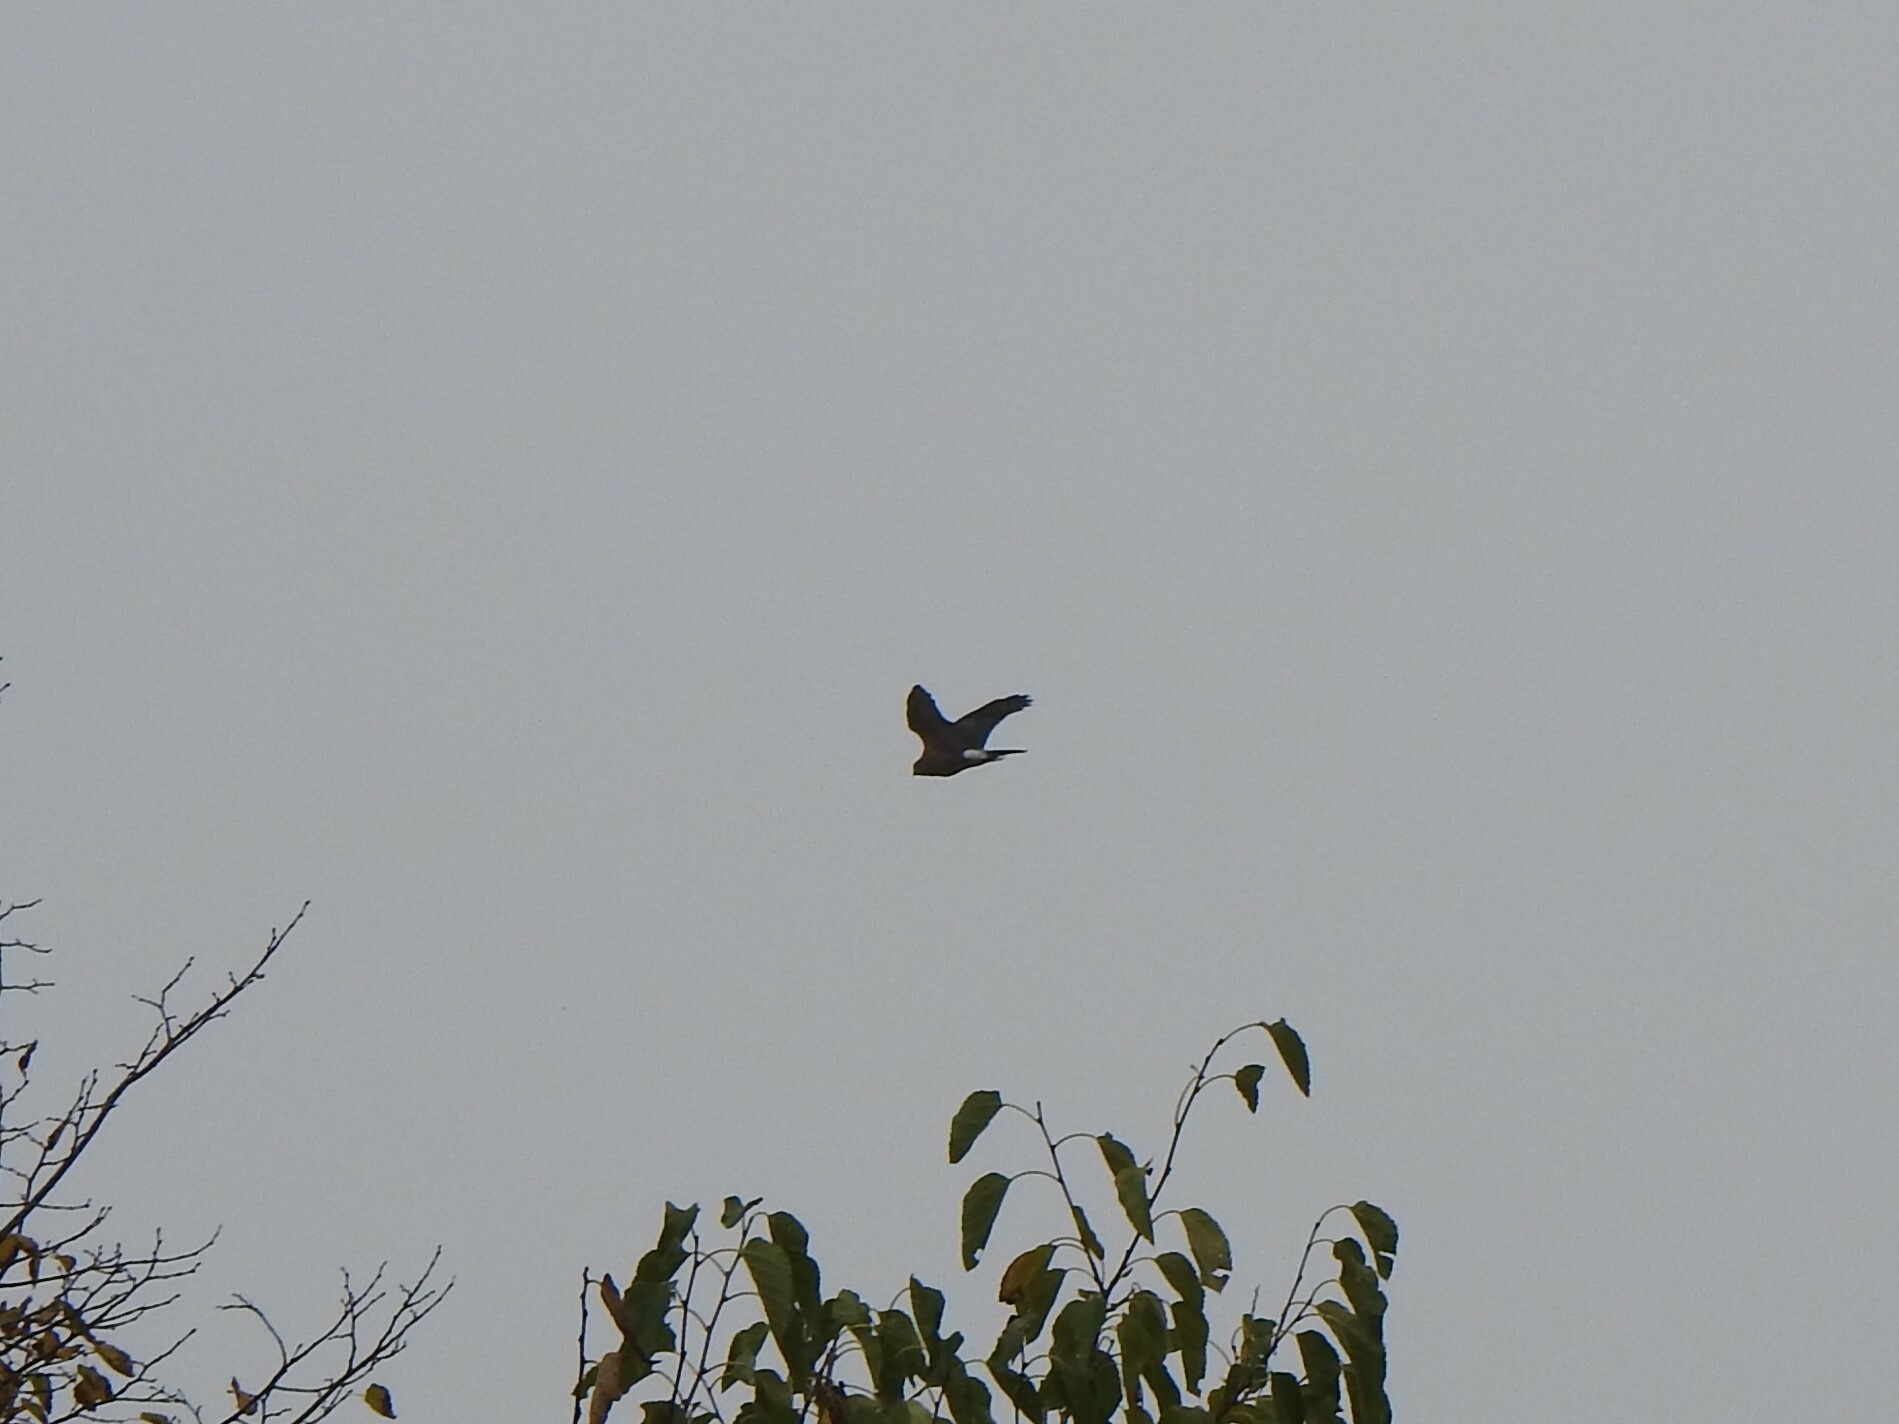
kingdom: Animalia
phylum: Chordata
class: Aves
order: Accipitriformes
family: Accipitridae
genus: Accipiter
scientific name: Accipiter cooperii
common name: Cooper's hawk
